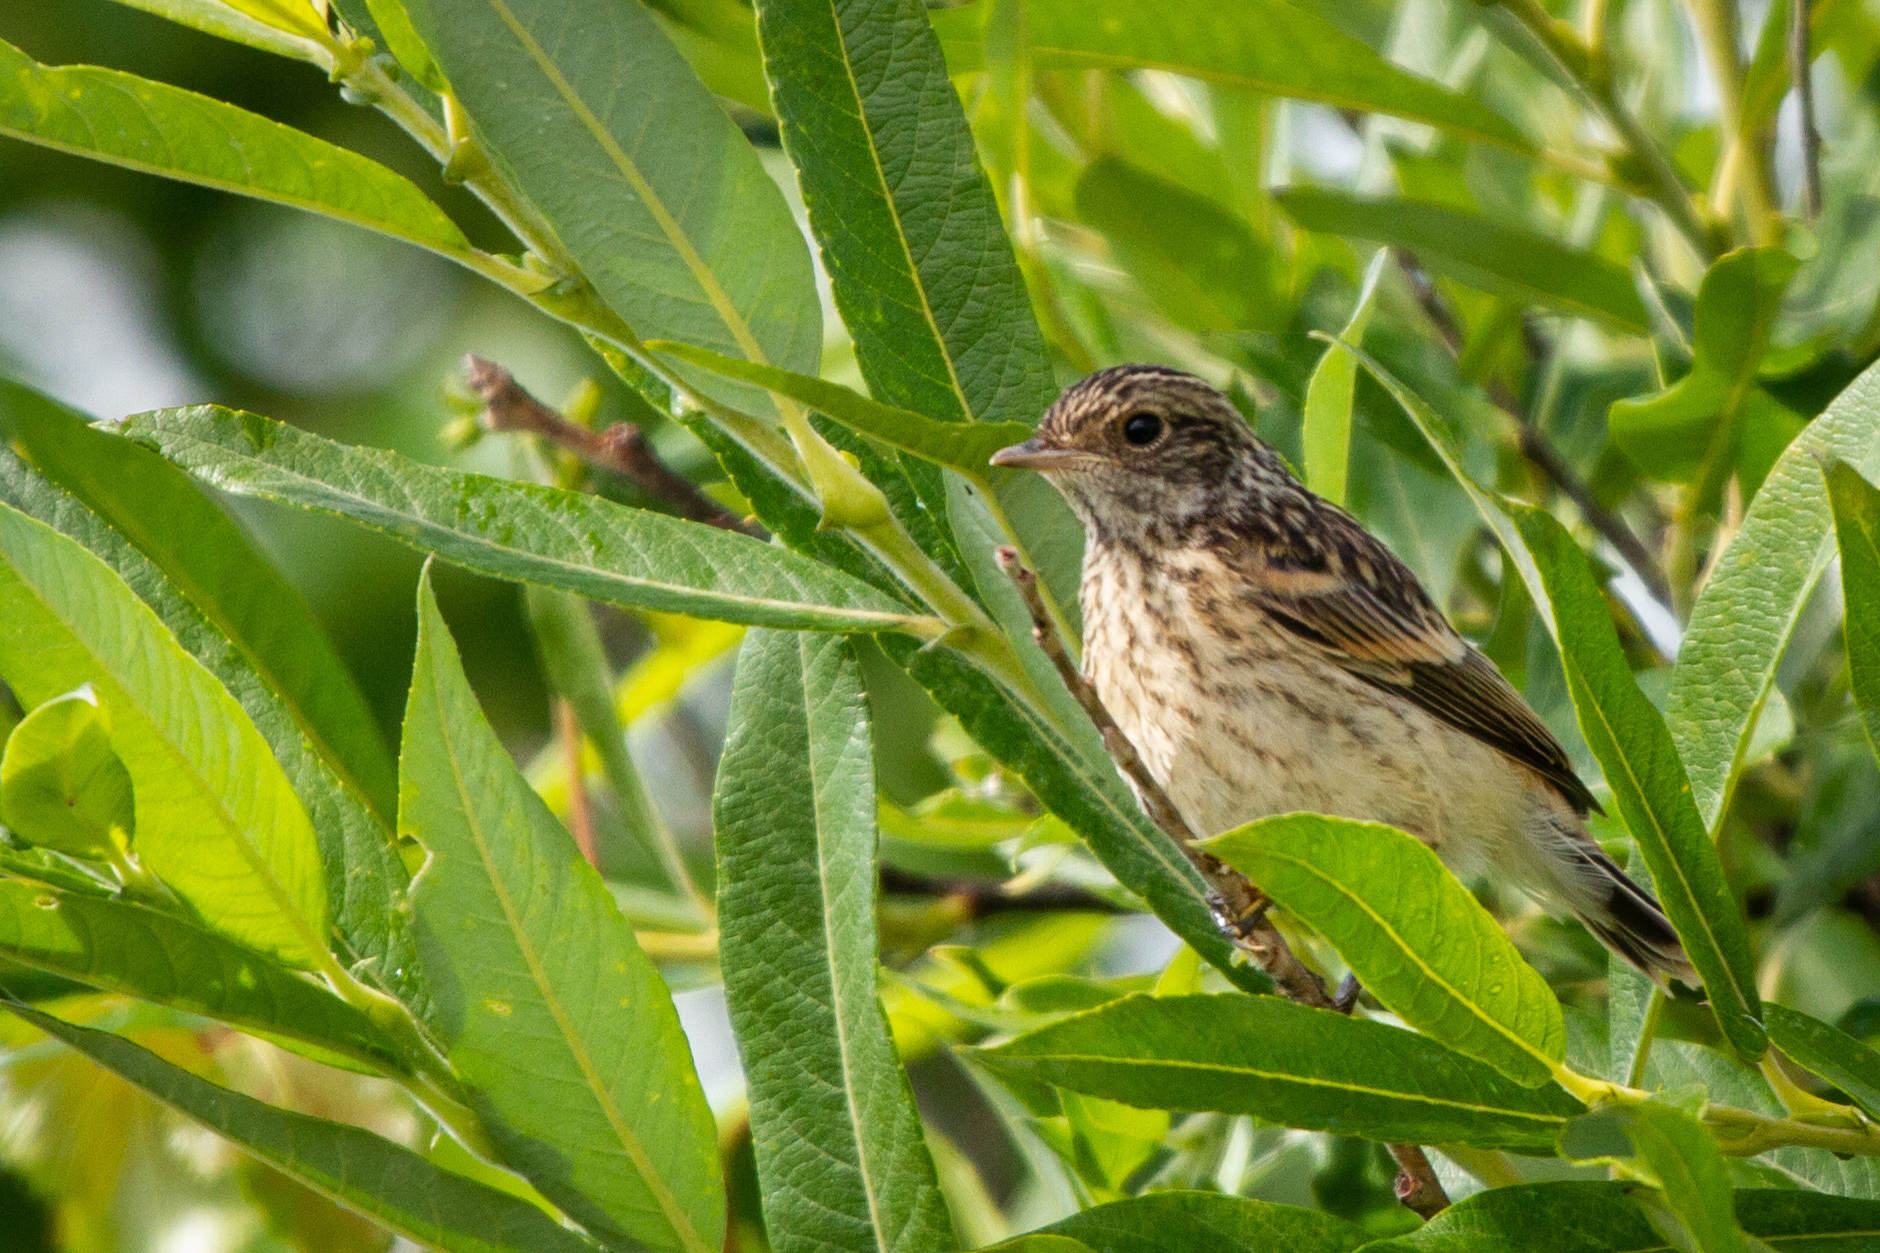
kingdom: Animalia
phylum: Chordata
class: Aves
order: Passeriformes
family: Muscicapidae
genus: Saxicola
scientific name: Saxicola maurus
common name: Siberian stonechat
